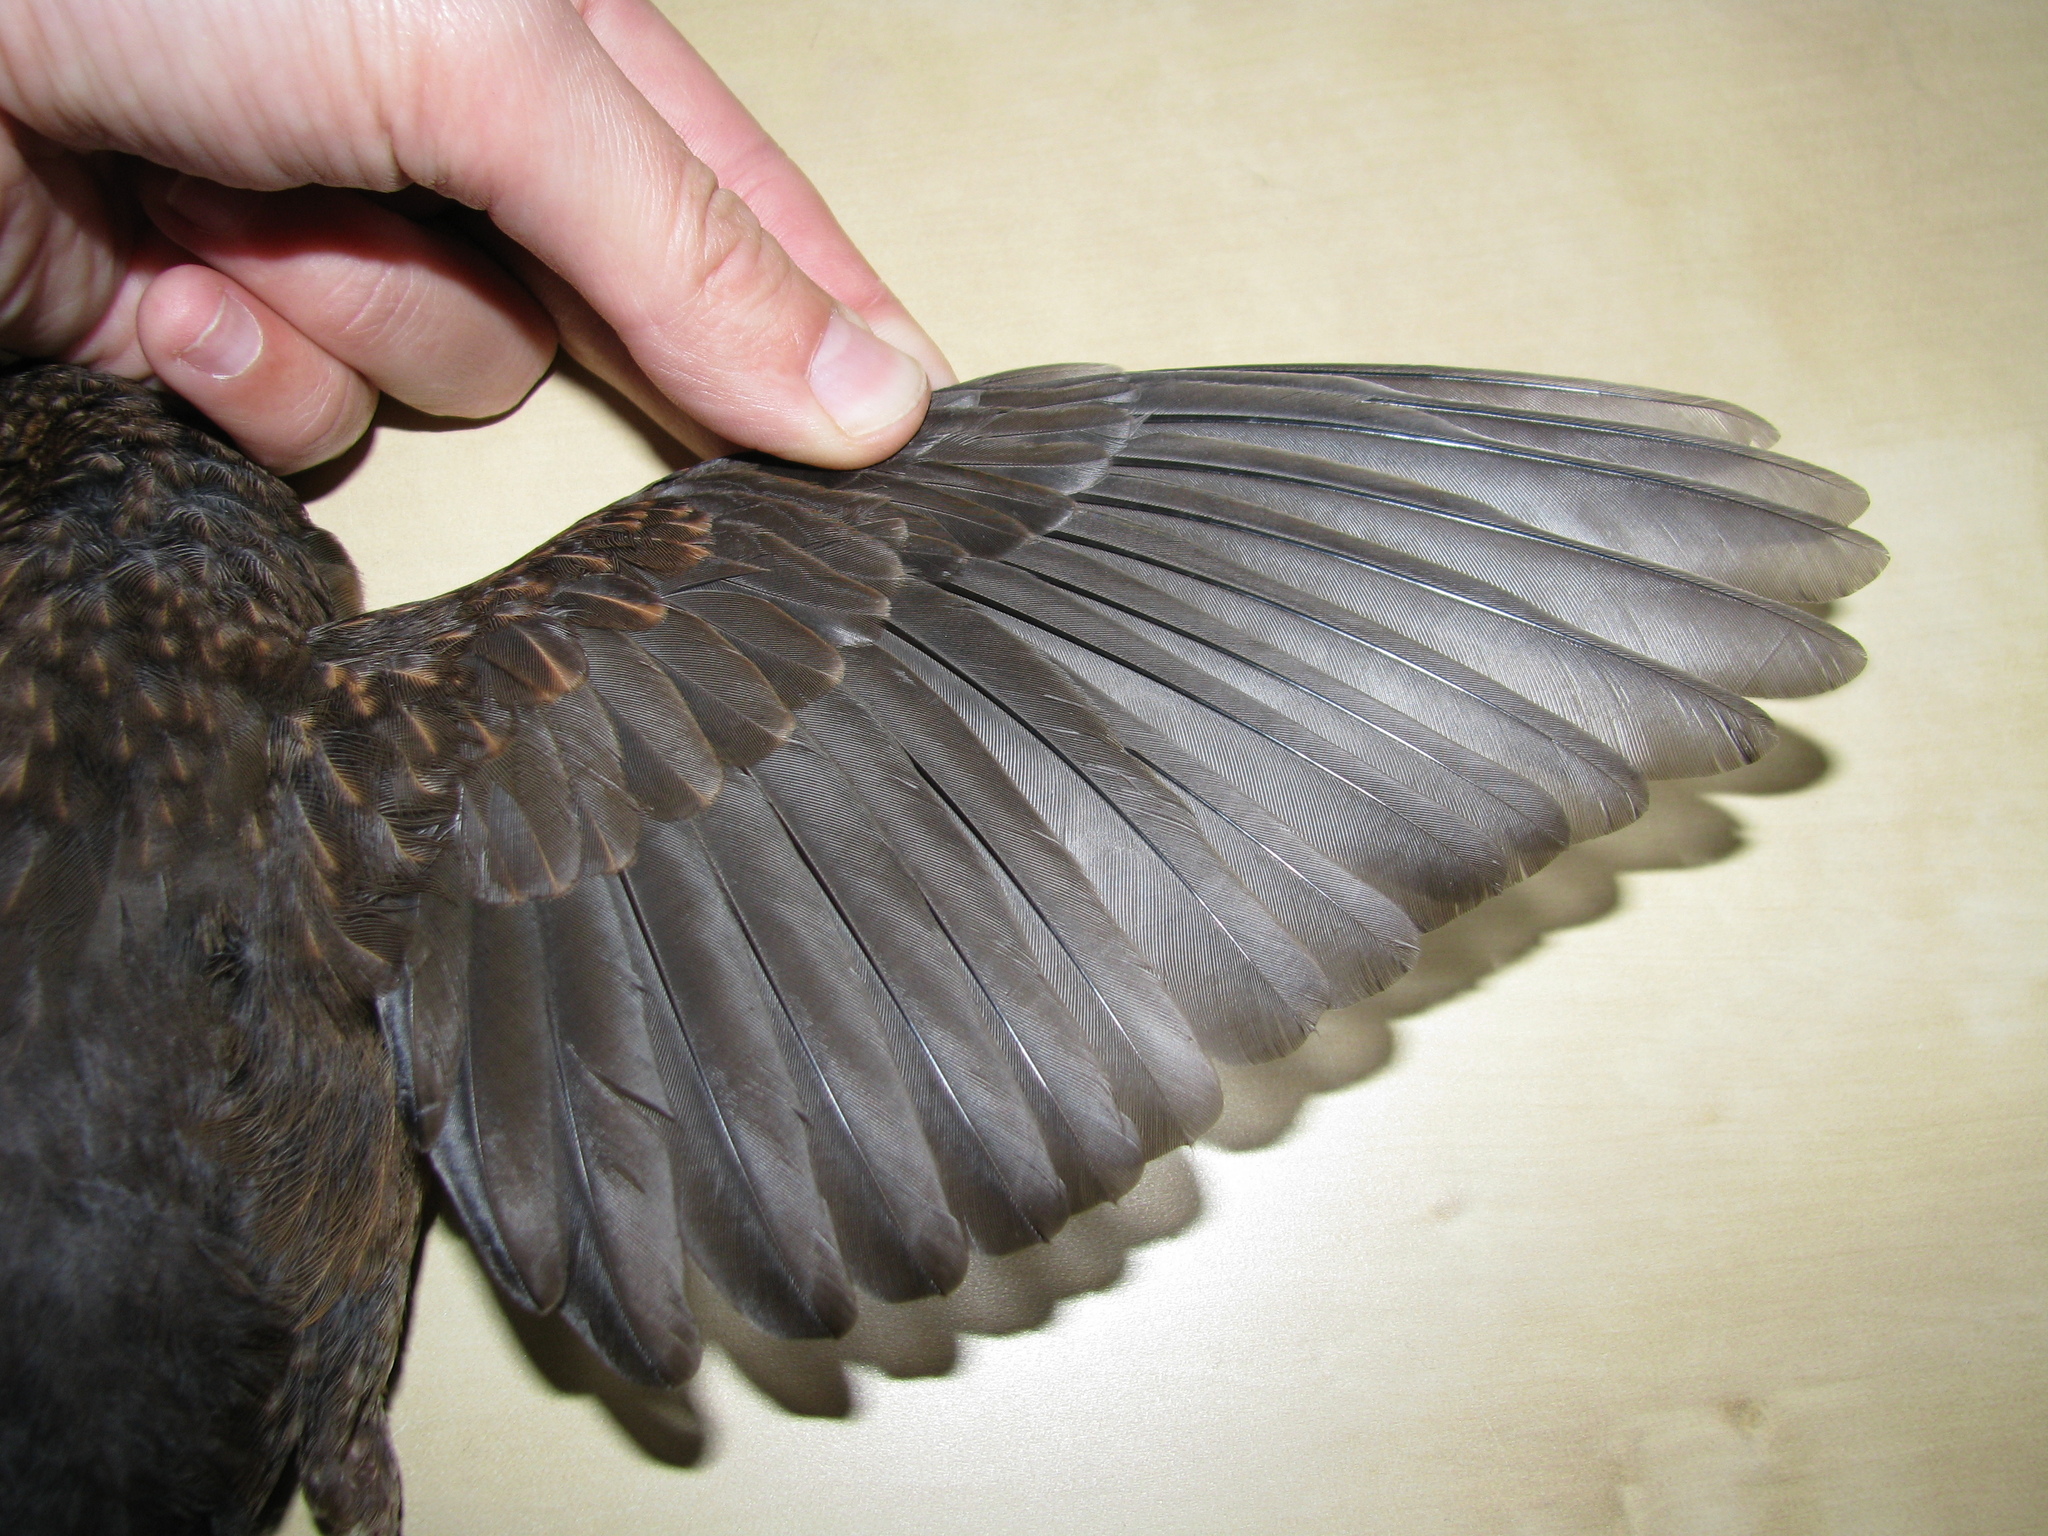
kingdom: Animalia
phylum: Chordata
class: Aves
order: Passeriformes
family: Turdidae
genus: Turdus
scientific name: Turdus merula
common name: Common blackbird
